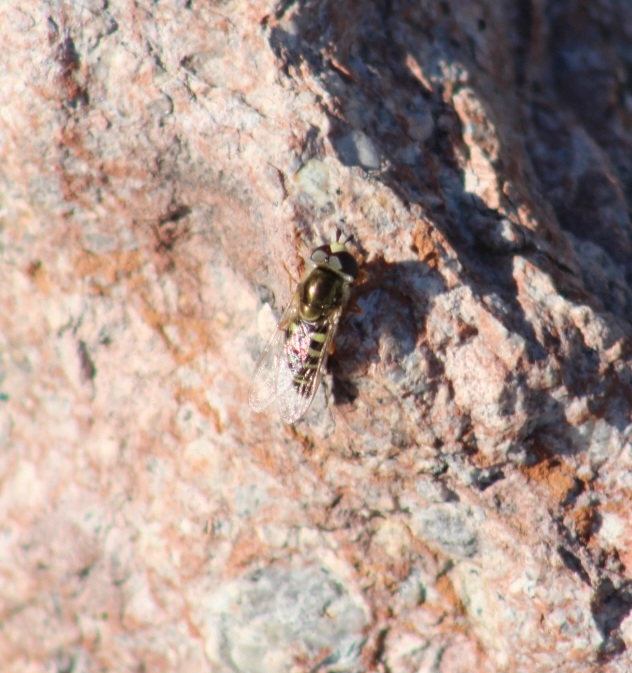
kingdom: Animalia
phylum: Arthropoda
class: Insecta
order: Diptera
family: Syrphidae
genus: Eupeodes
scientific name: Eupeodes volucris
